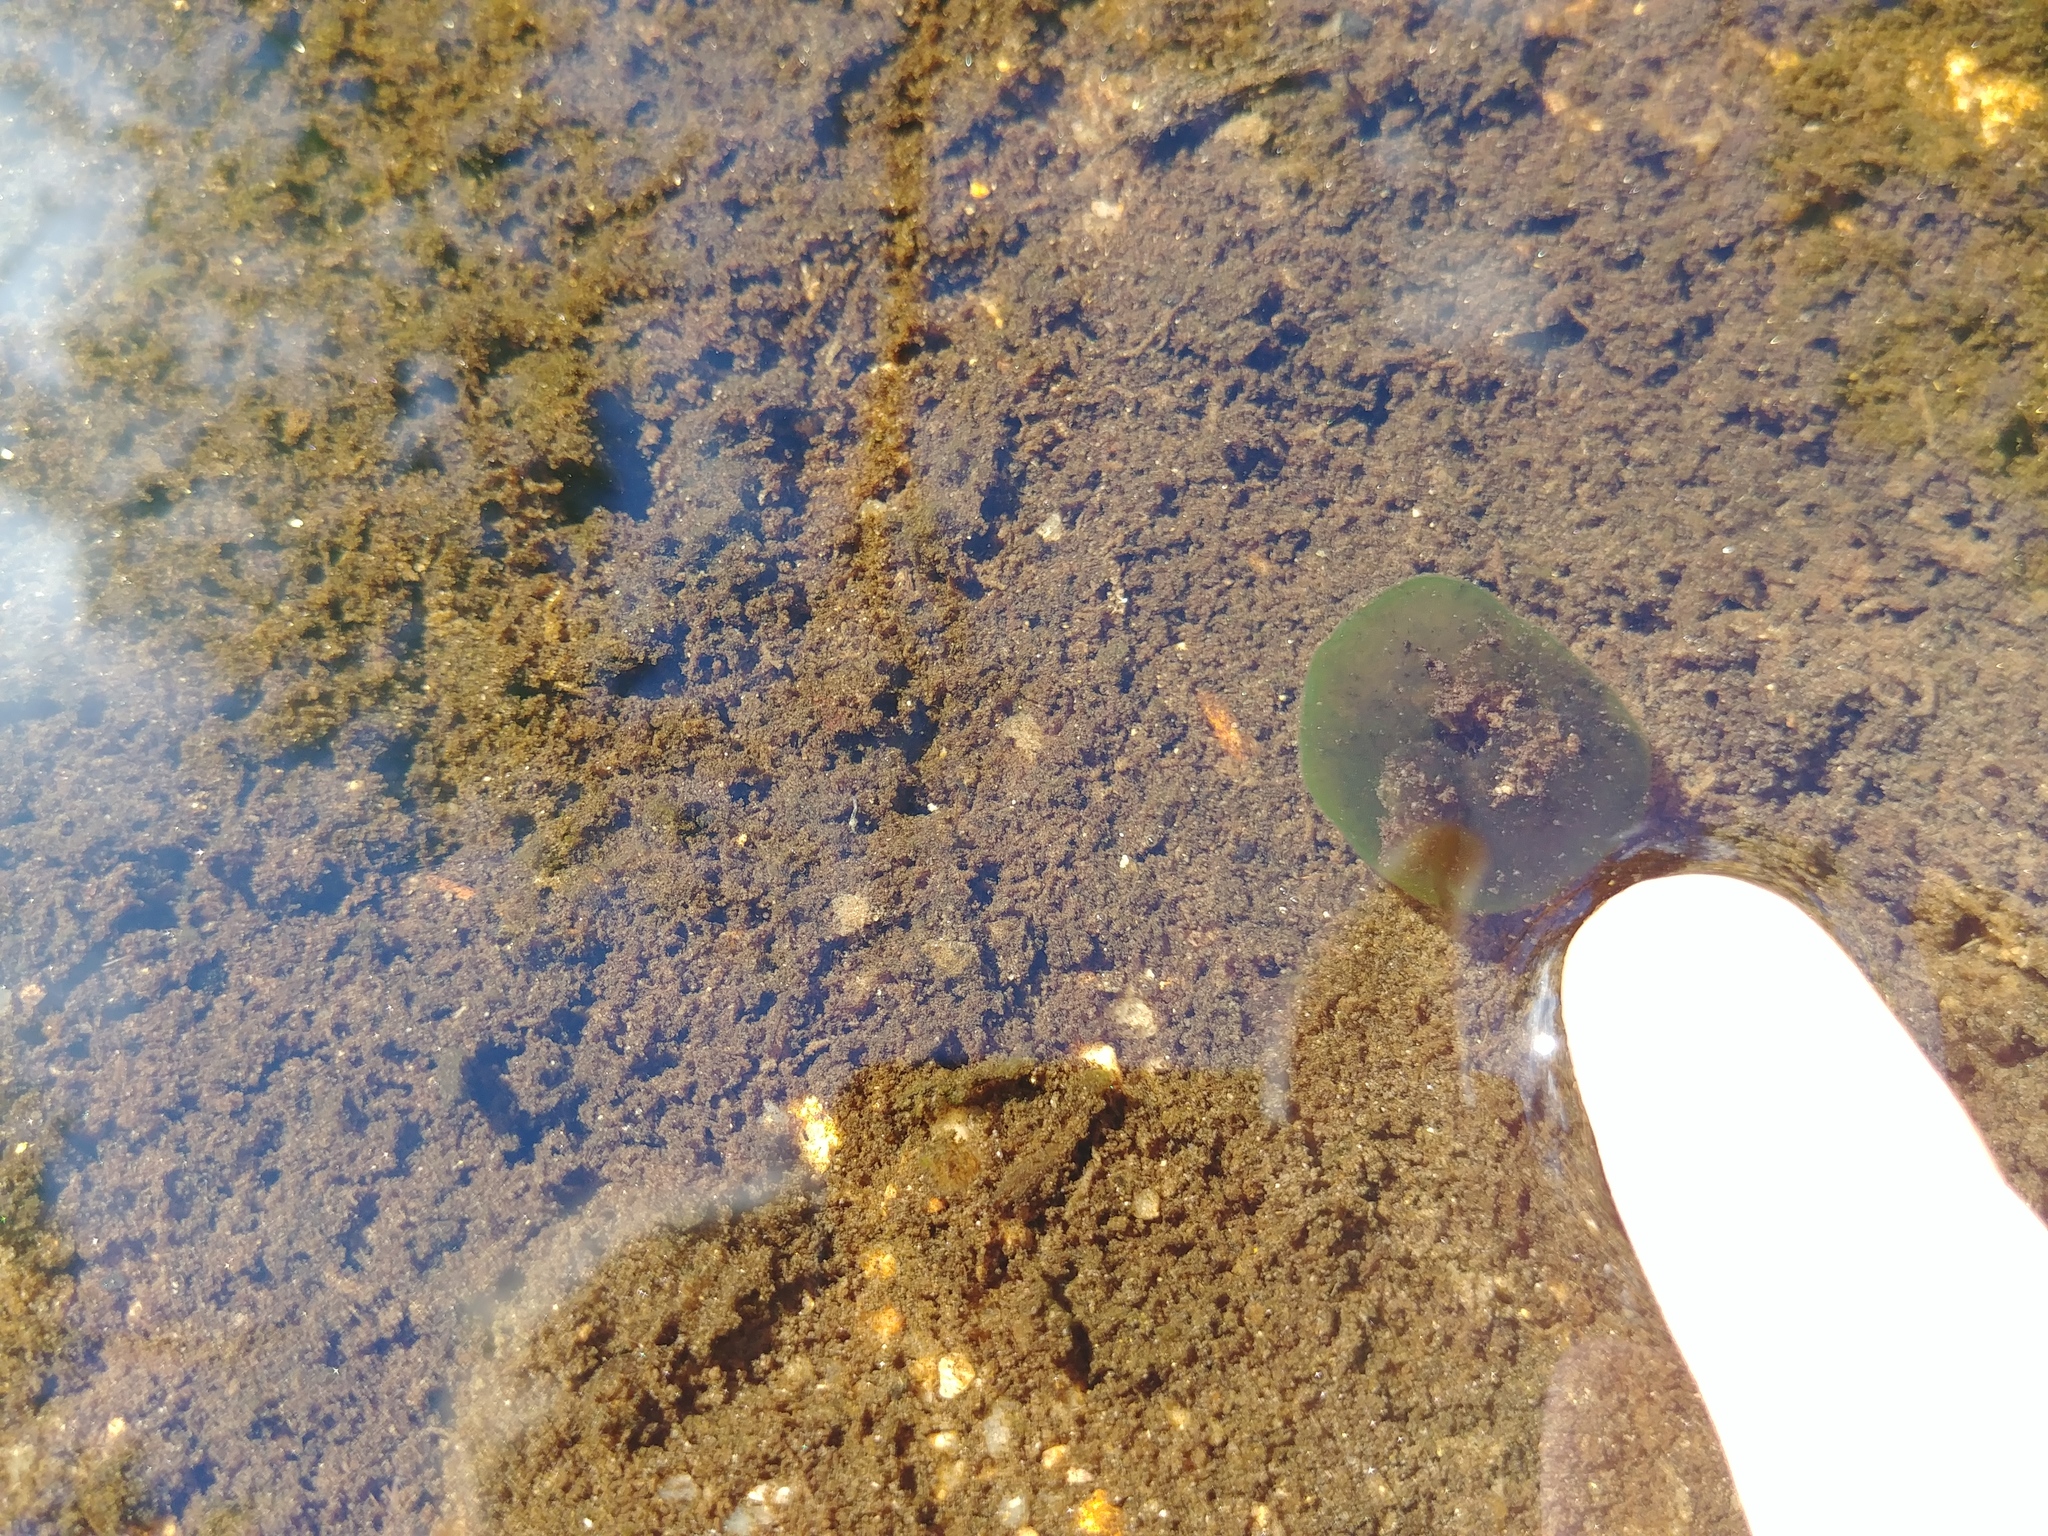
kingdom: Chromista
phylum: Ciliophora
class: Oligohymenophorea
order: Peritrichida
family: Ophrydiidae
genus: Ophrydium
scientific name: Ophrydium
